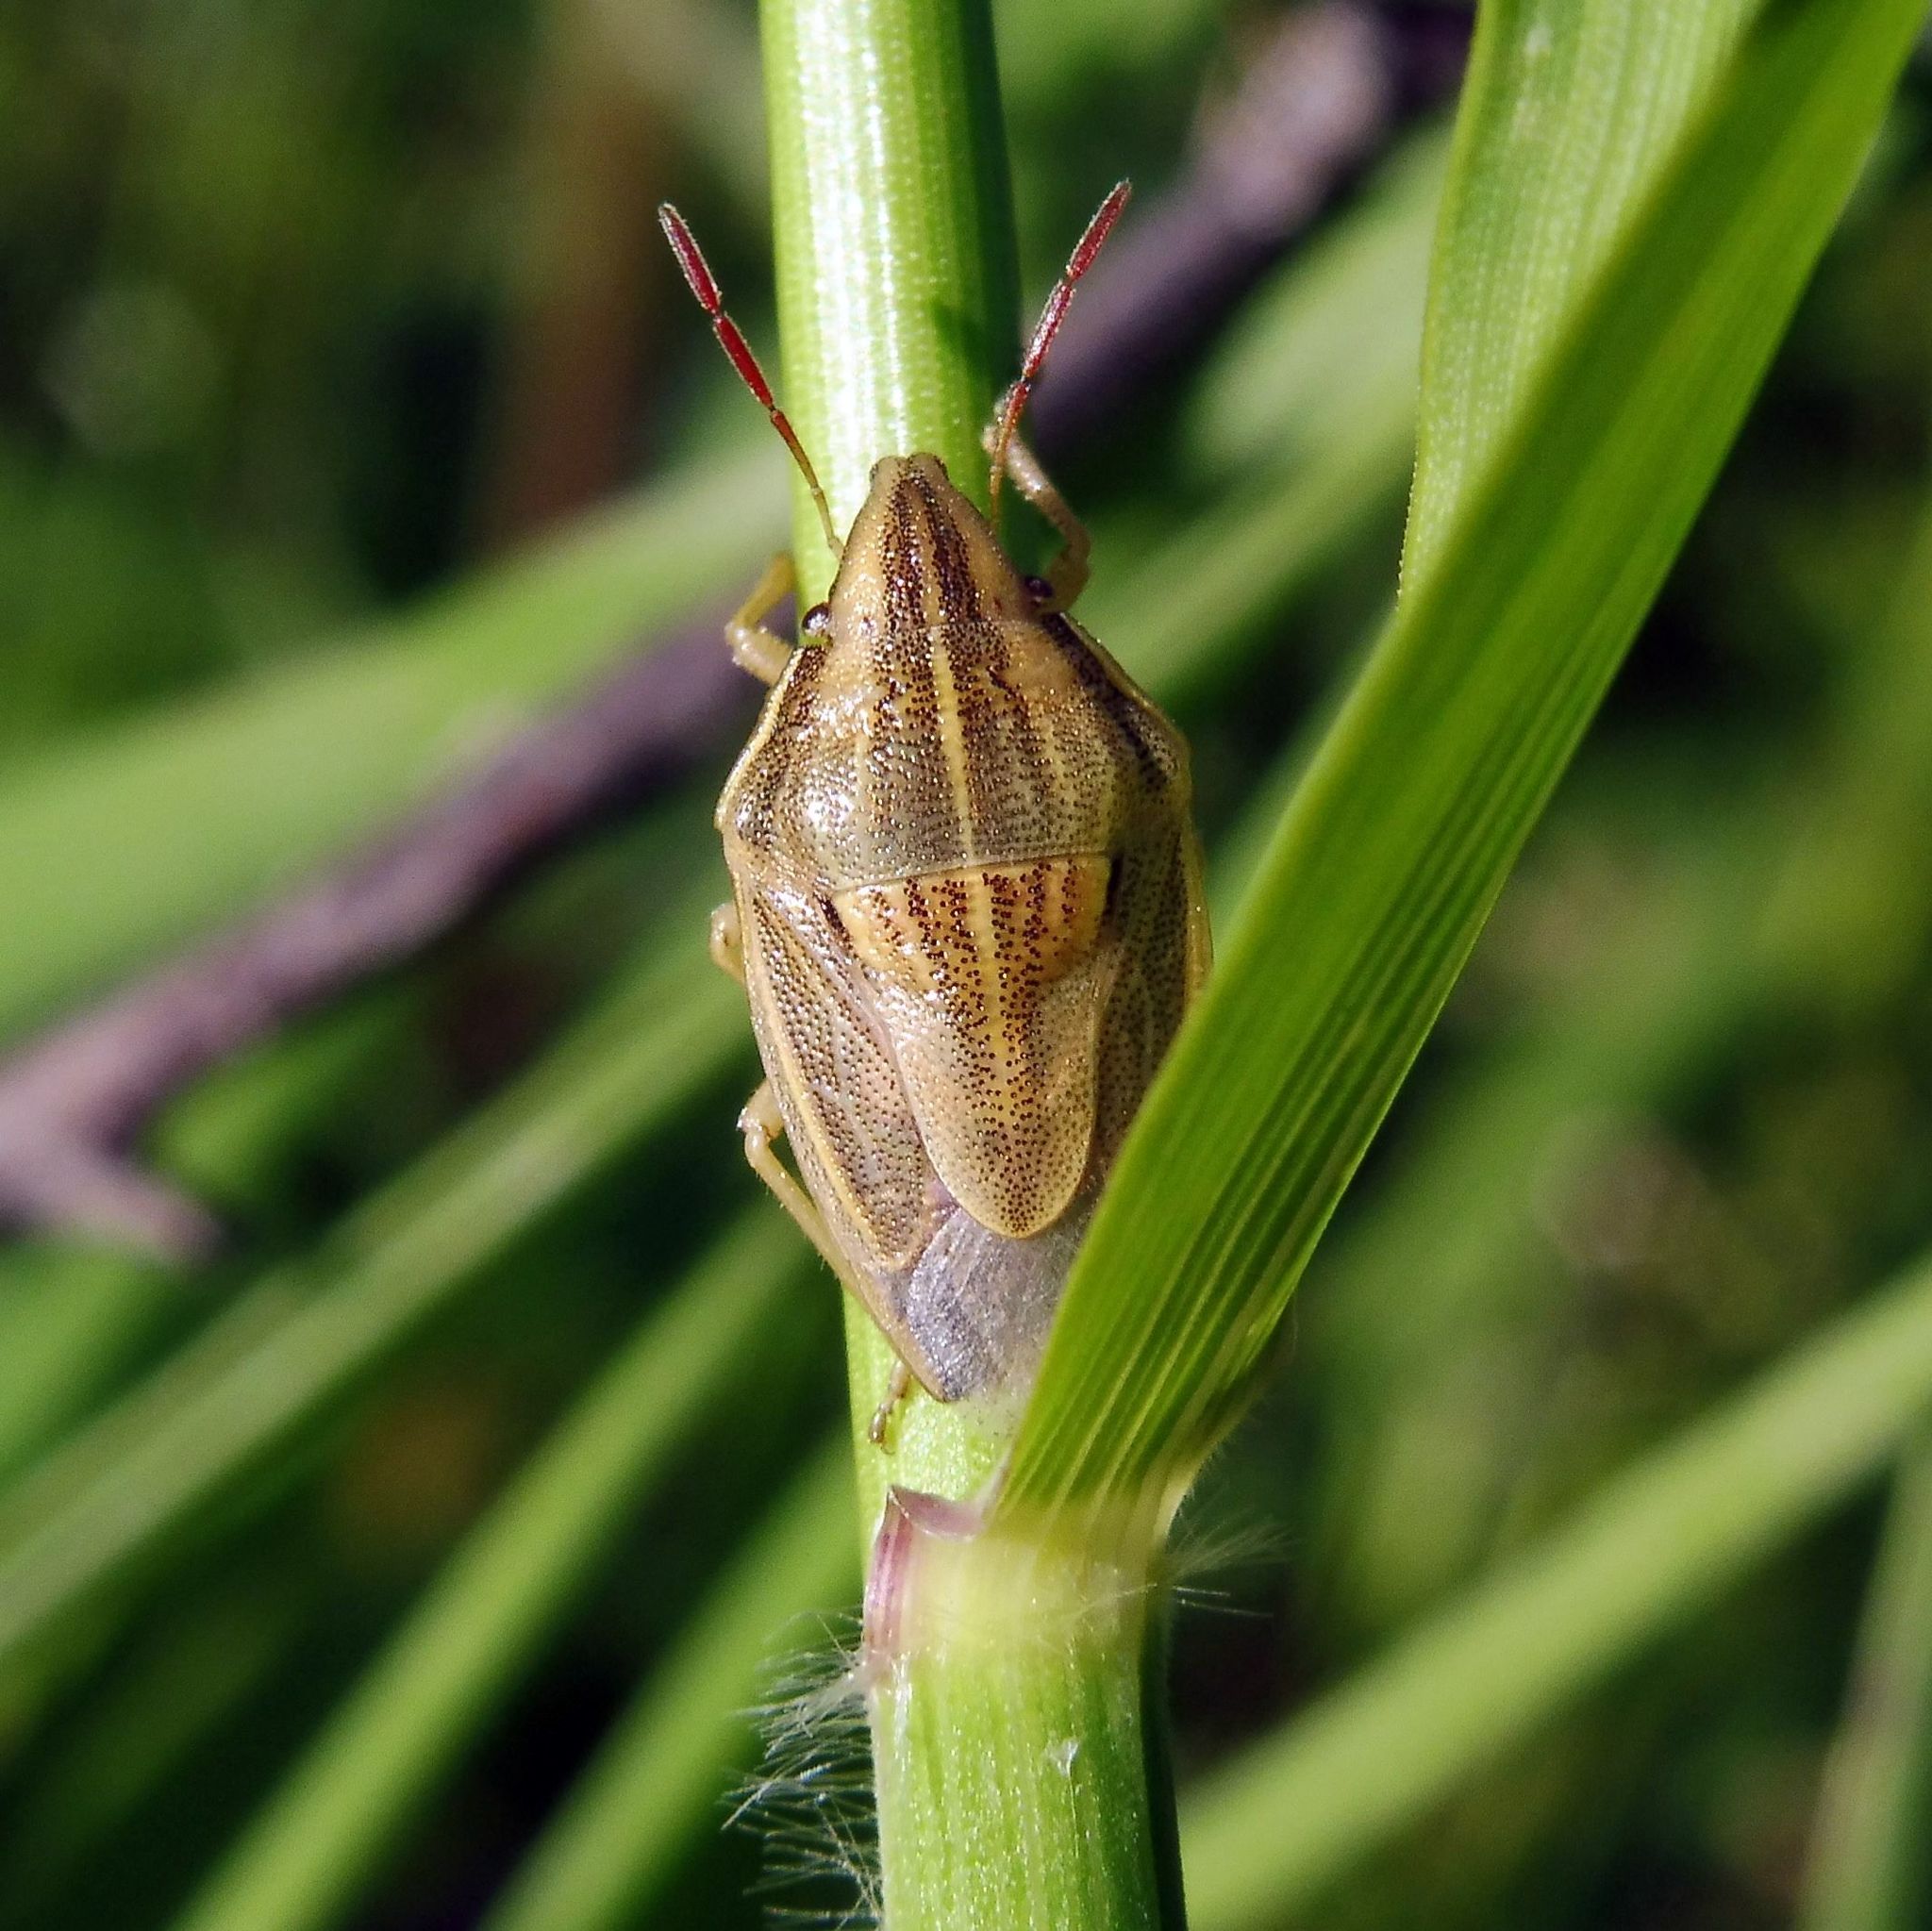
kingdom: Animalia
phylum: Arthropoda
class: Insecta
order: Hemiptera
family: Pentatomidae
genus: Aelia
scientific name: Aelia acuminata
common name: Bishop's mitre
